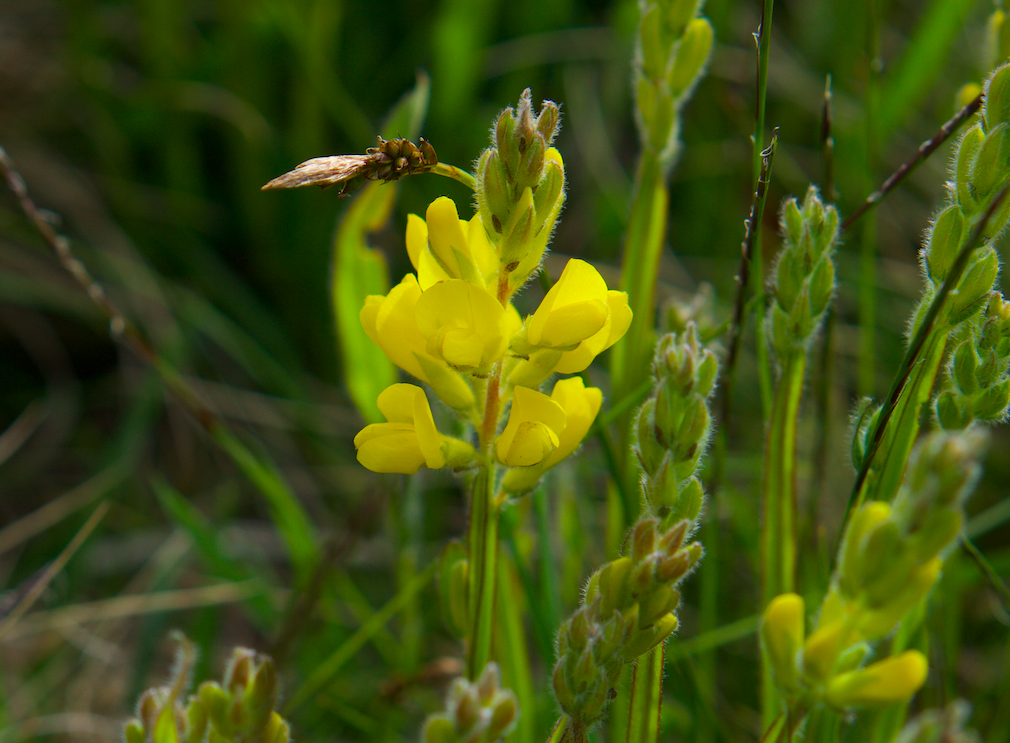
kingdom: Plantae
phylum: Tracheophyta
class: Magnoliopsida
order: Fabales
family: Fabaceae
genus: Genista
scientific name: Genista sagittalis
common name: Winged greenweed
